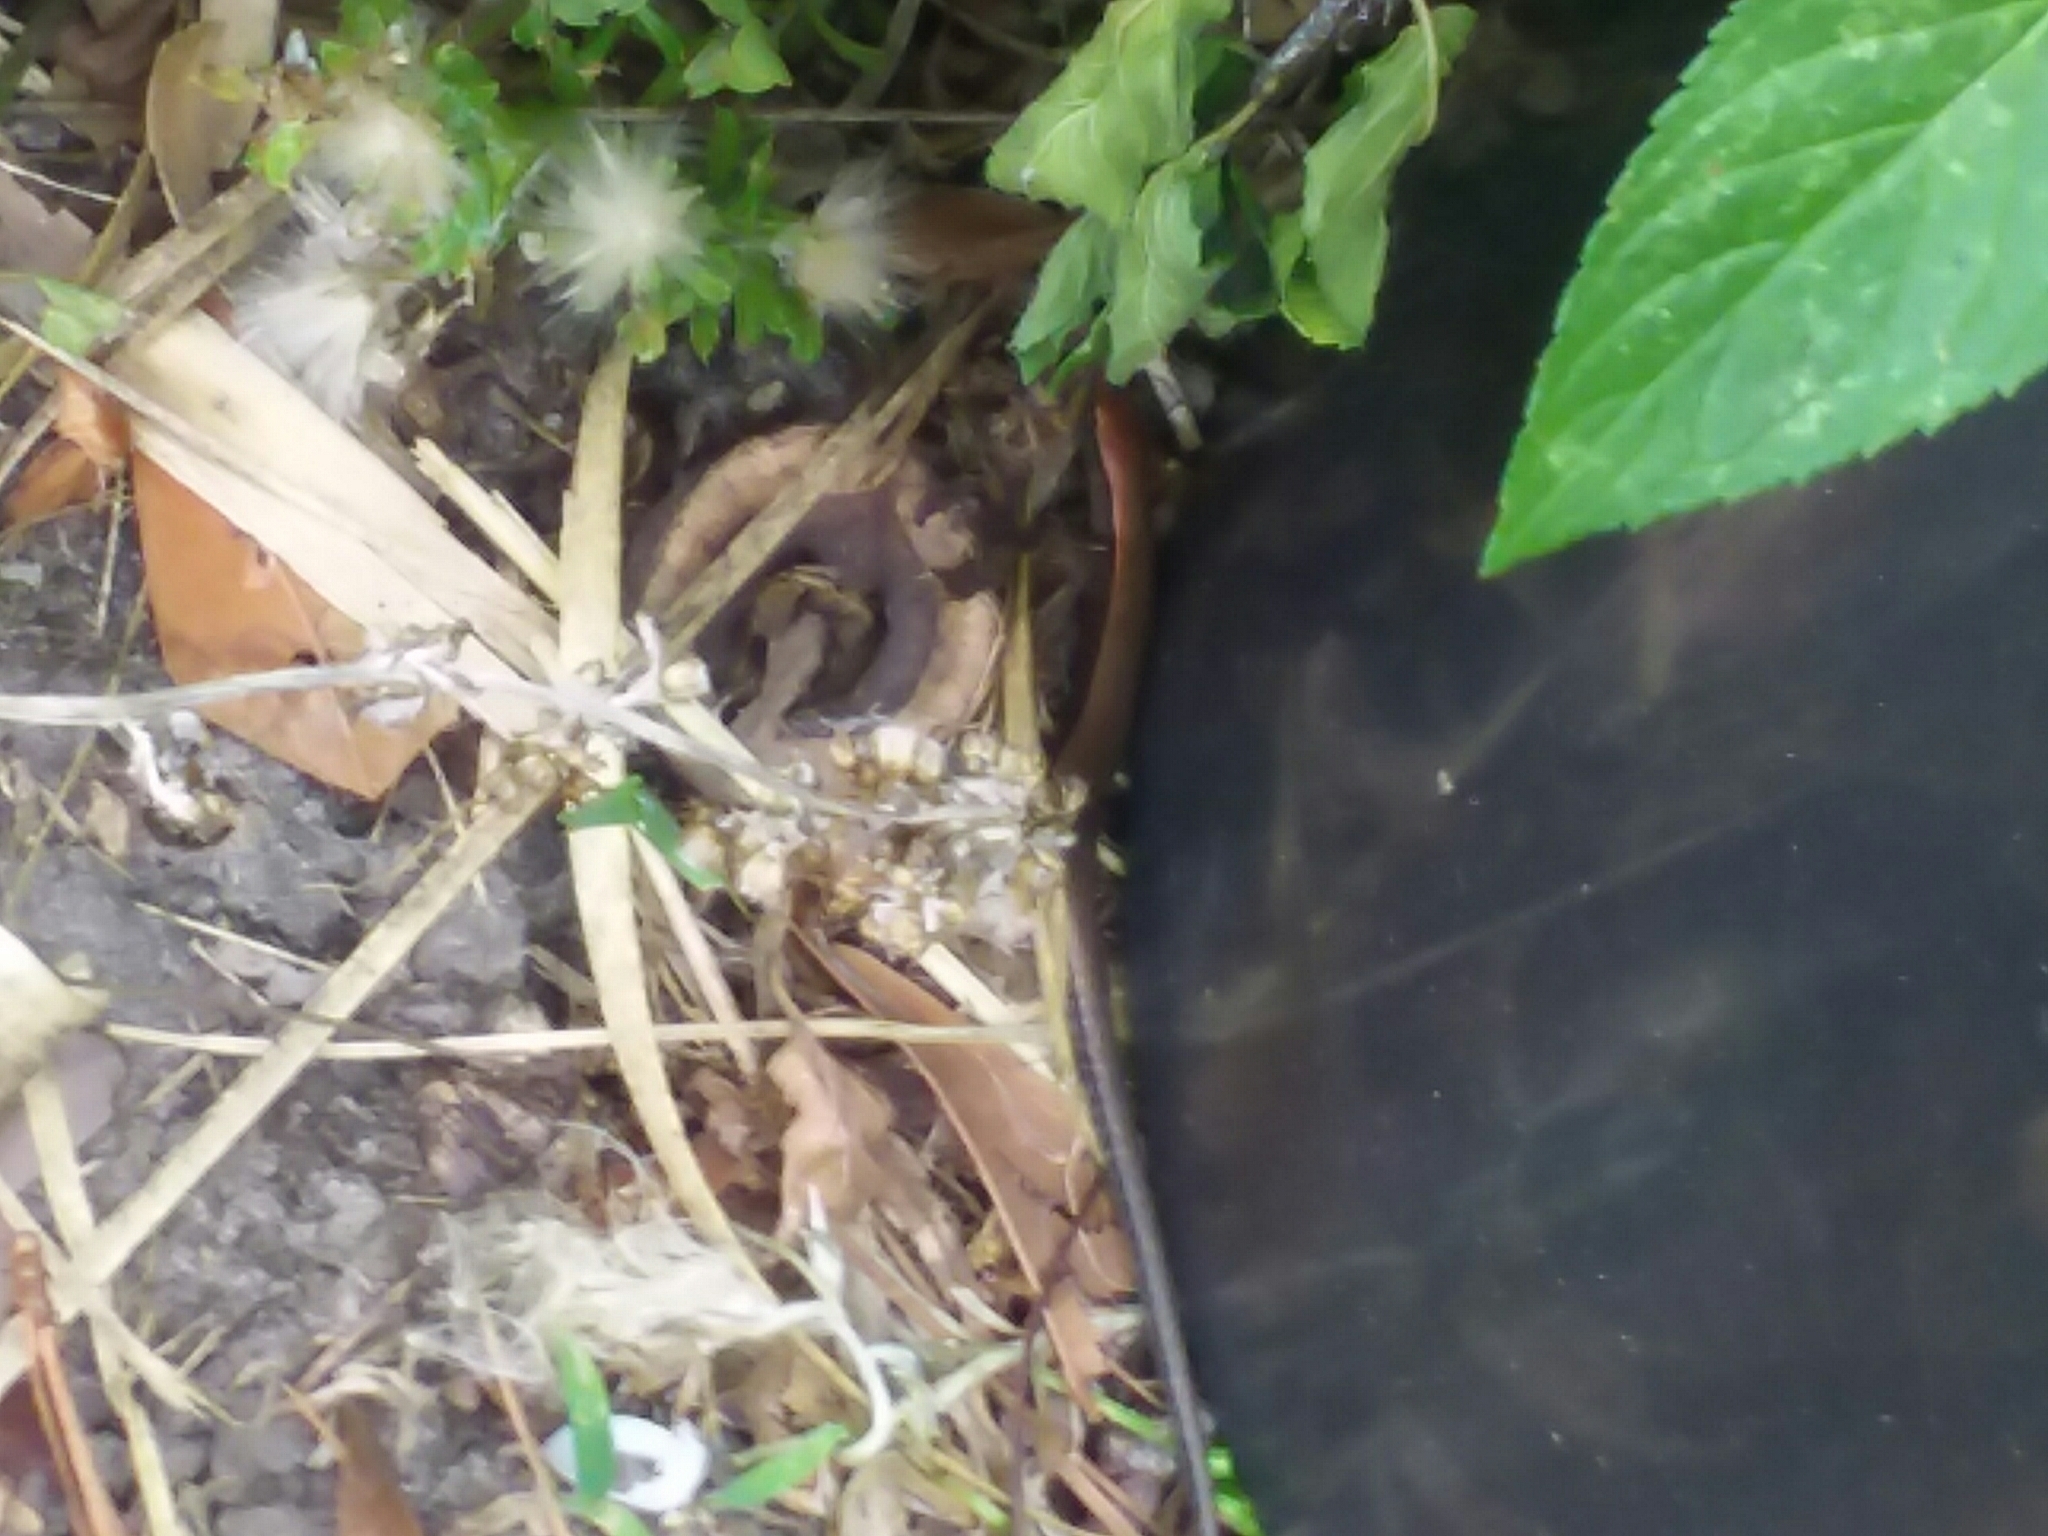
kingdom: Animalia
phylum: Chordata
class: Squamata
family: Scincidae
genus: Scincella
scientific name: Scincella lateralis
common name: Ground skink
